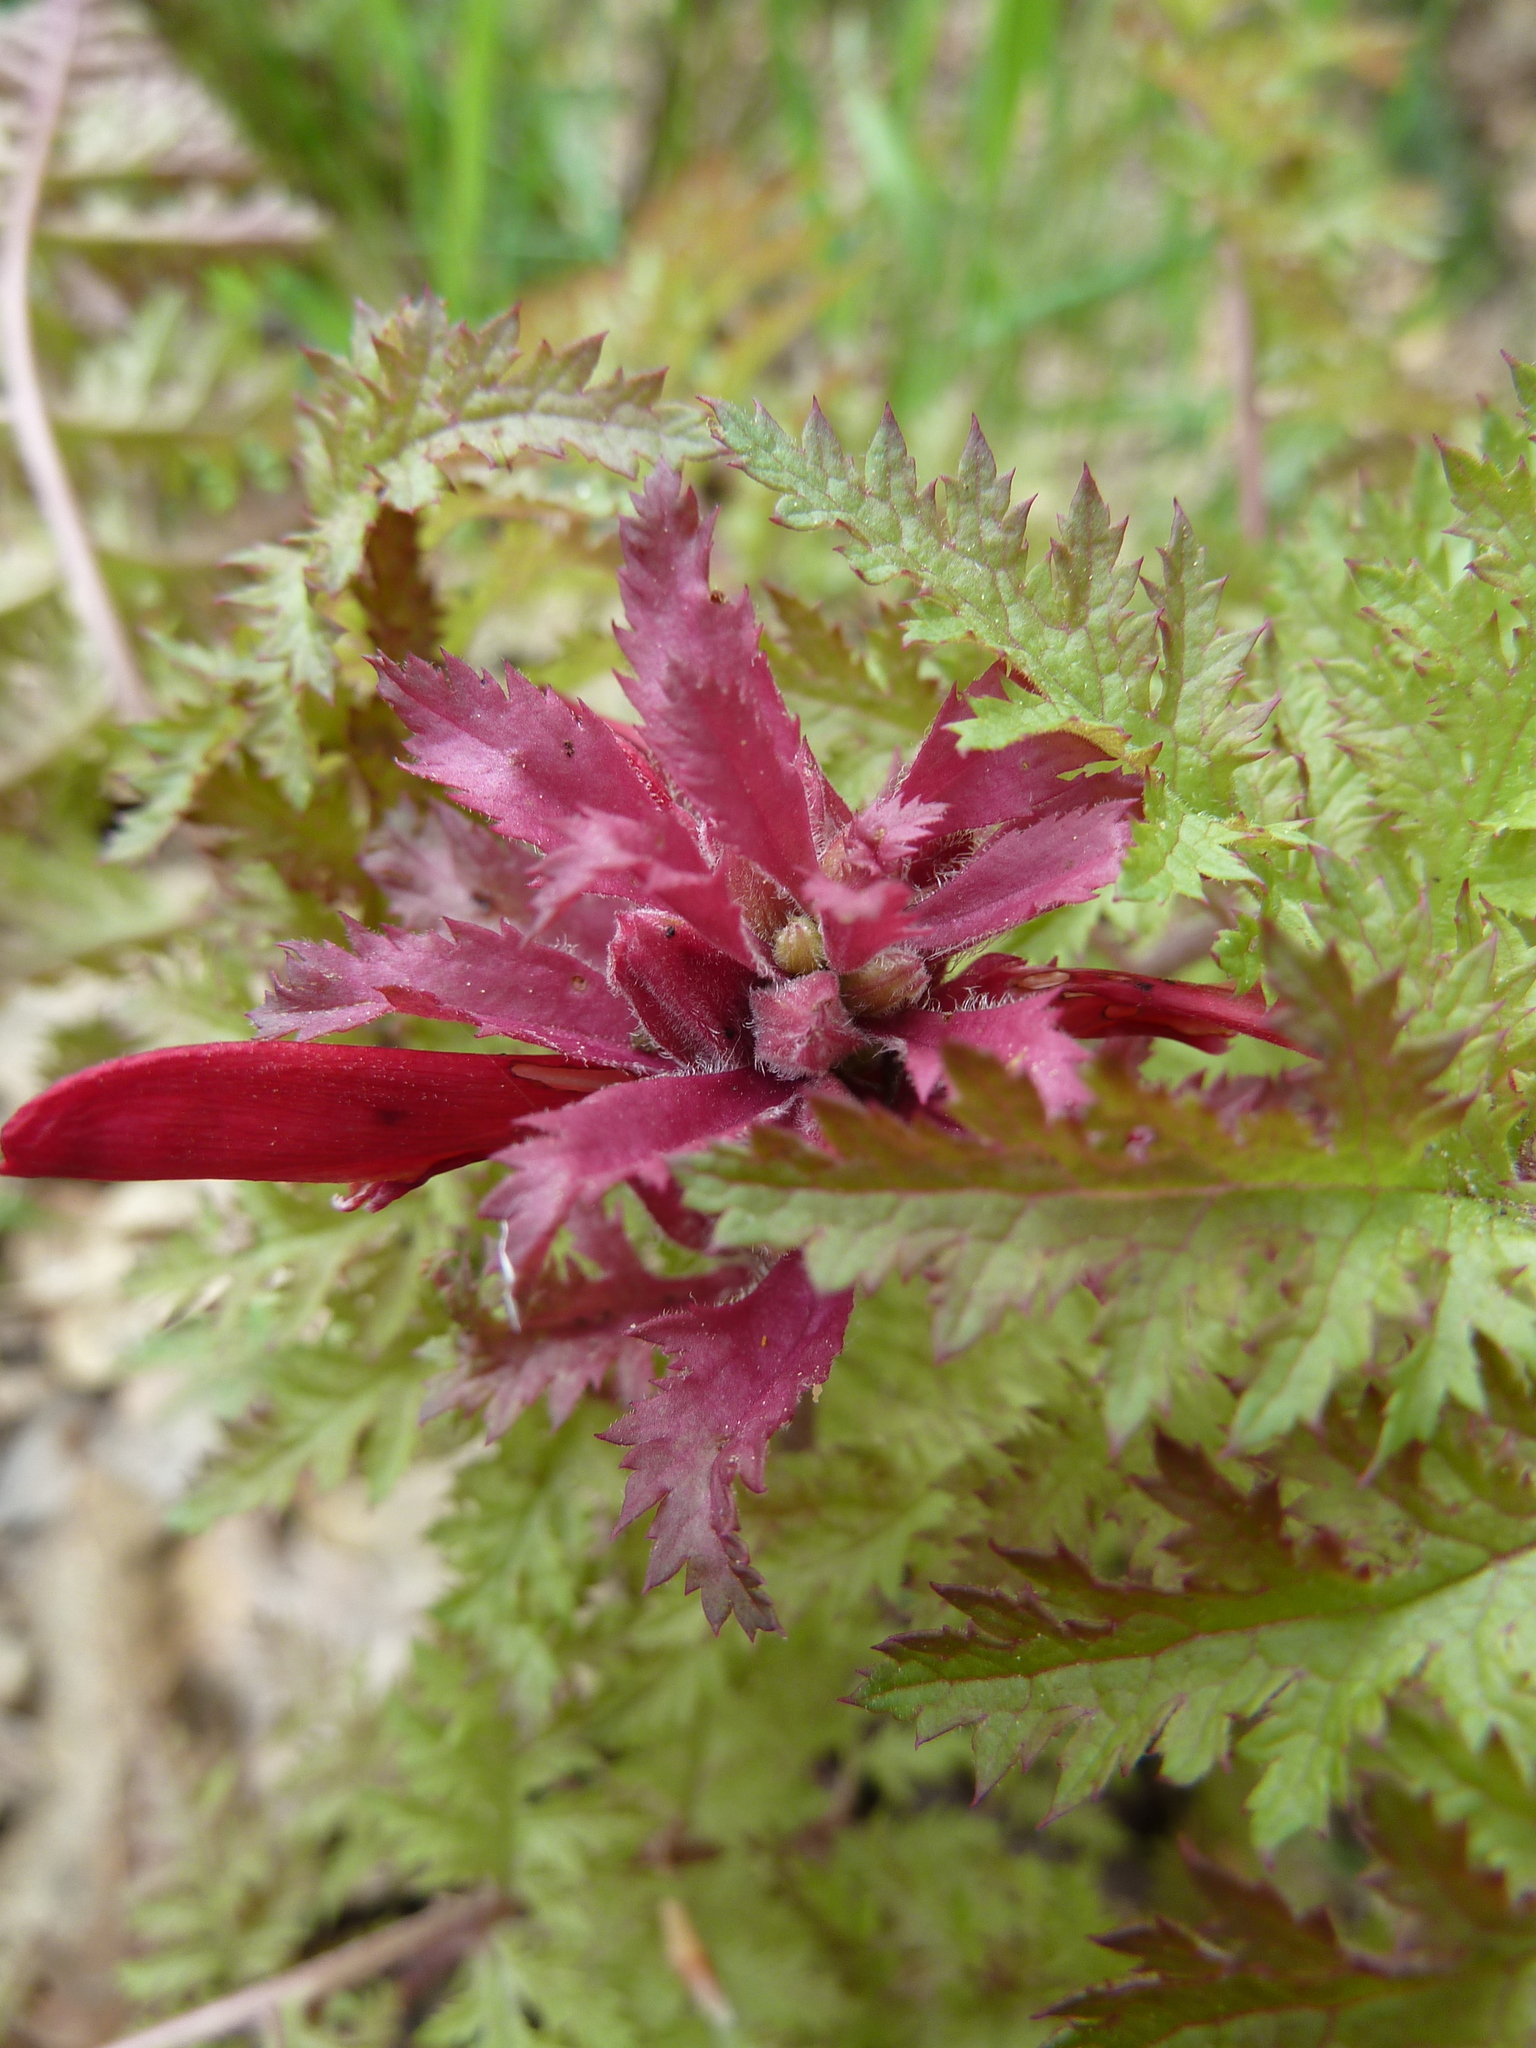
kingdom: Plantae
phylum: Tracheophyta
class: Magnoliopsida
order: Lamiales
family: Orobanchaceae
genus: Pedicularis
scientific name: Pedicularis densiflora
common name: Indian warrior
